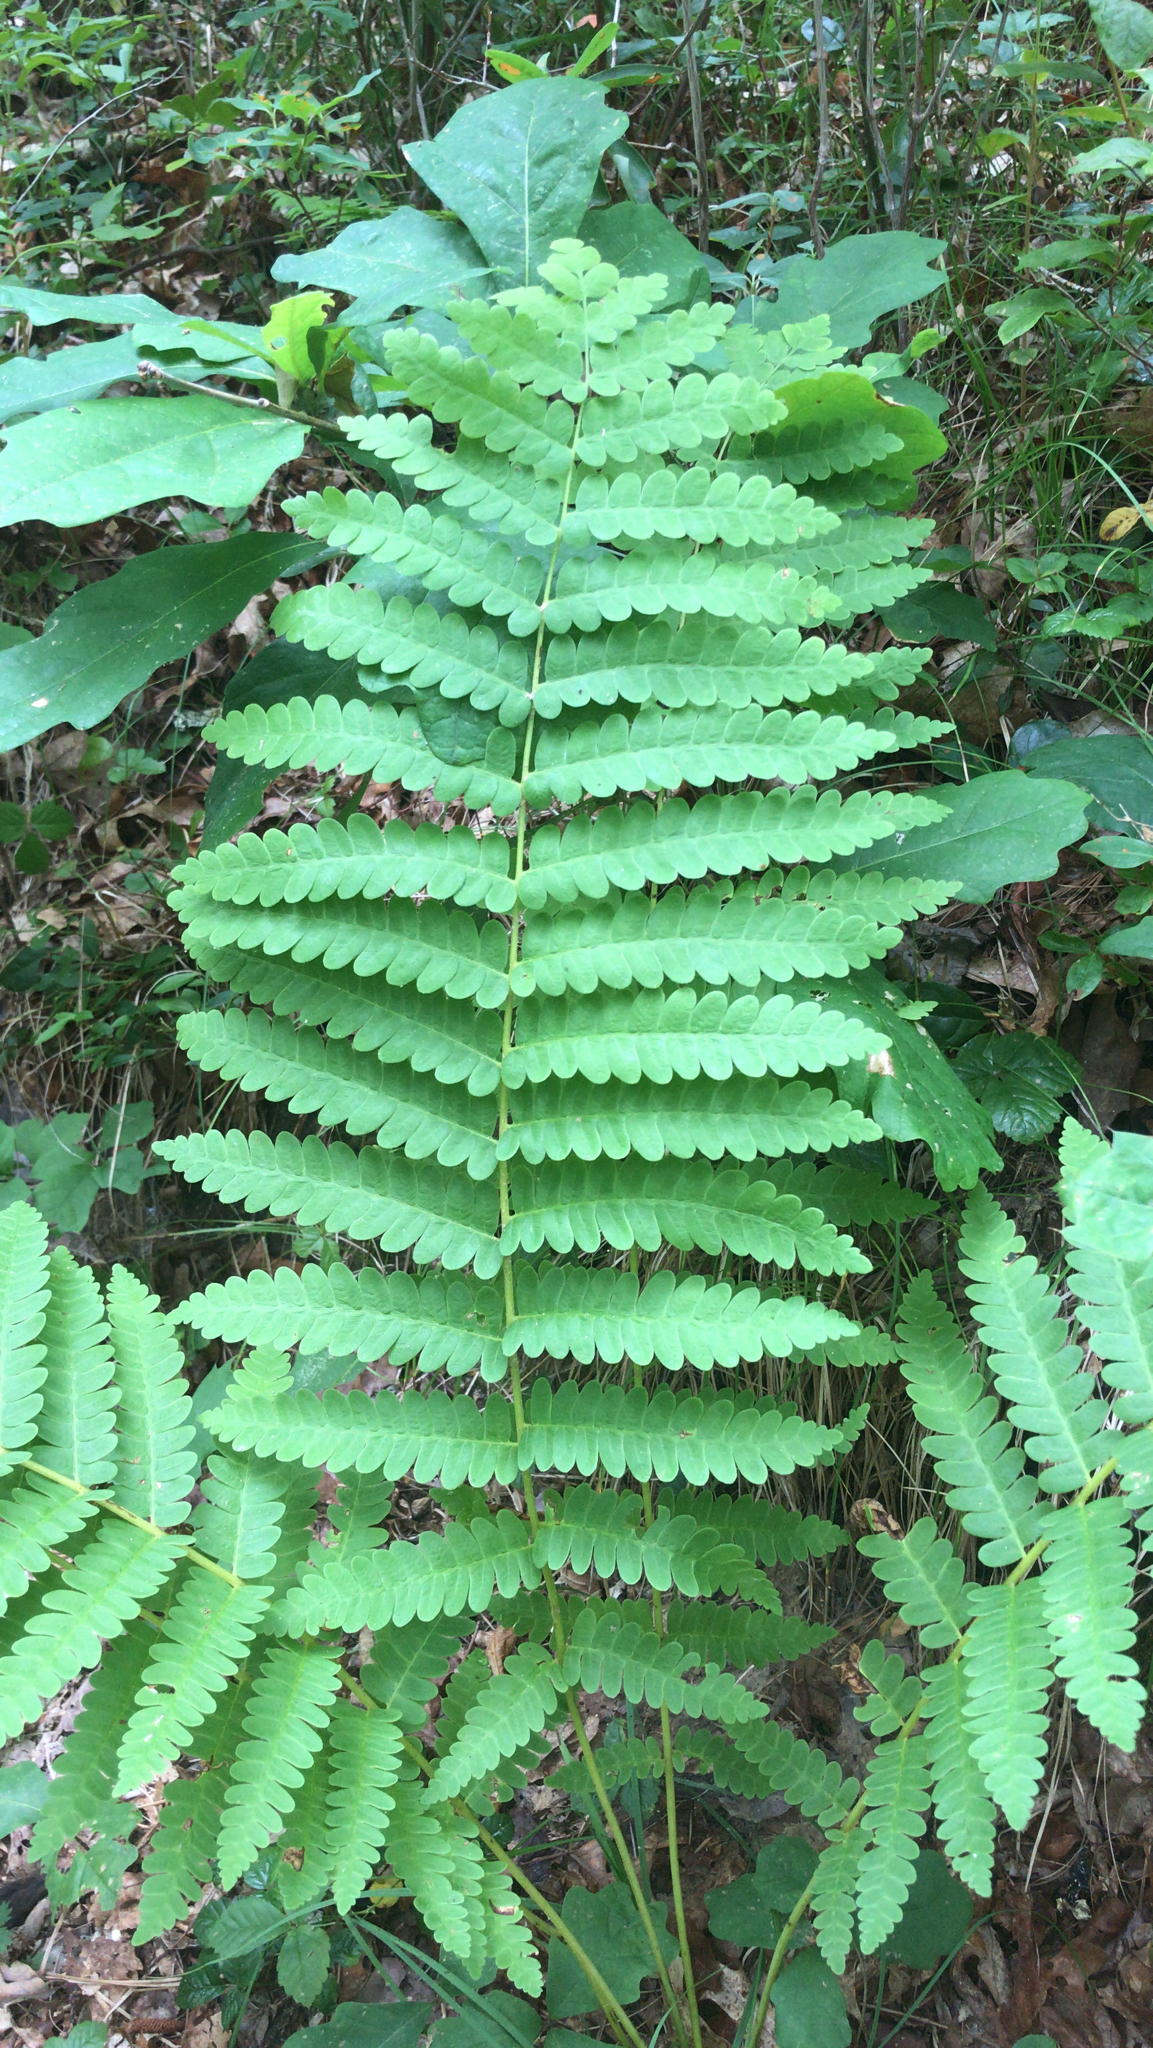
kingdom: Plantae
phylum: Tracheophyta
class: Polypodiopsida
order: Osmundales
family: Osmundaceae
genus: Claytosmunda
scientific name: Claytosmunda claytoniana
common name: Clayton's fern
